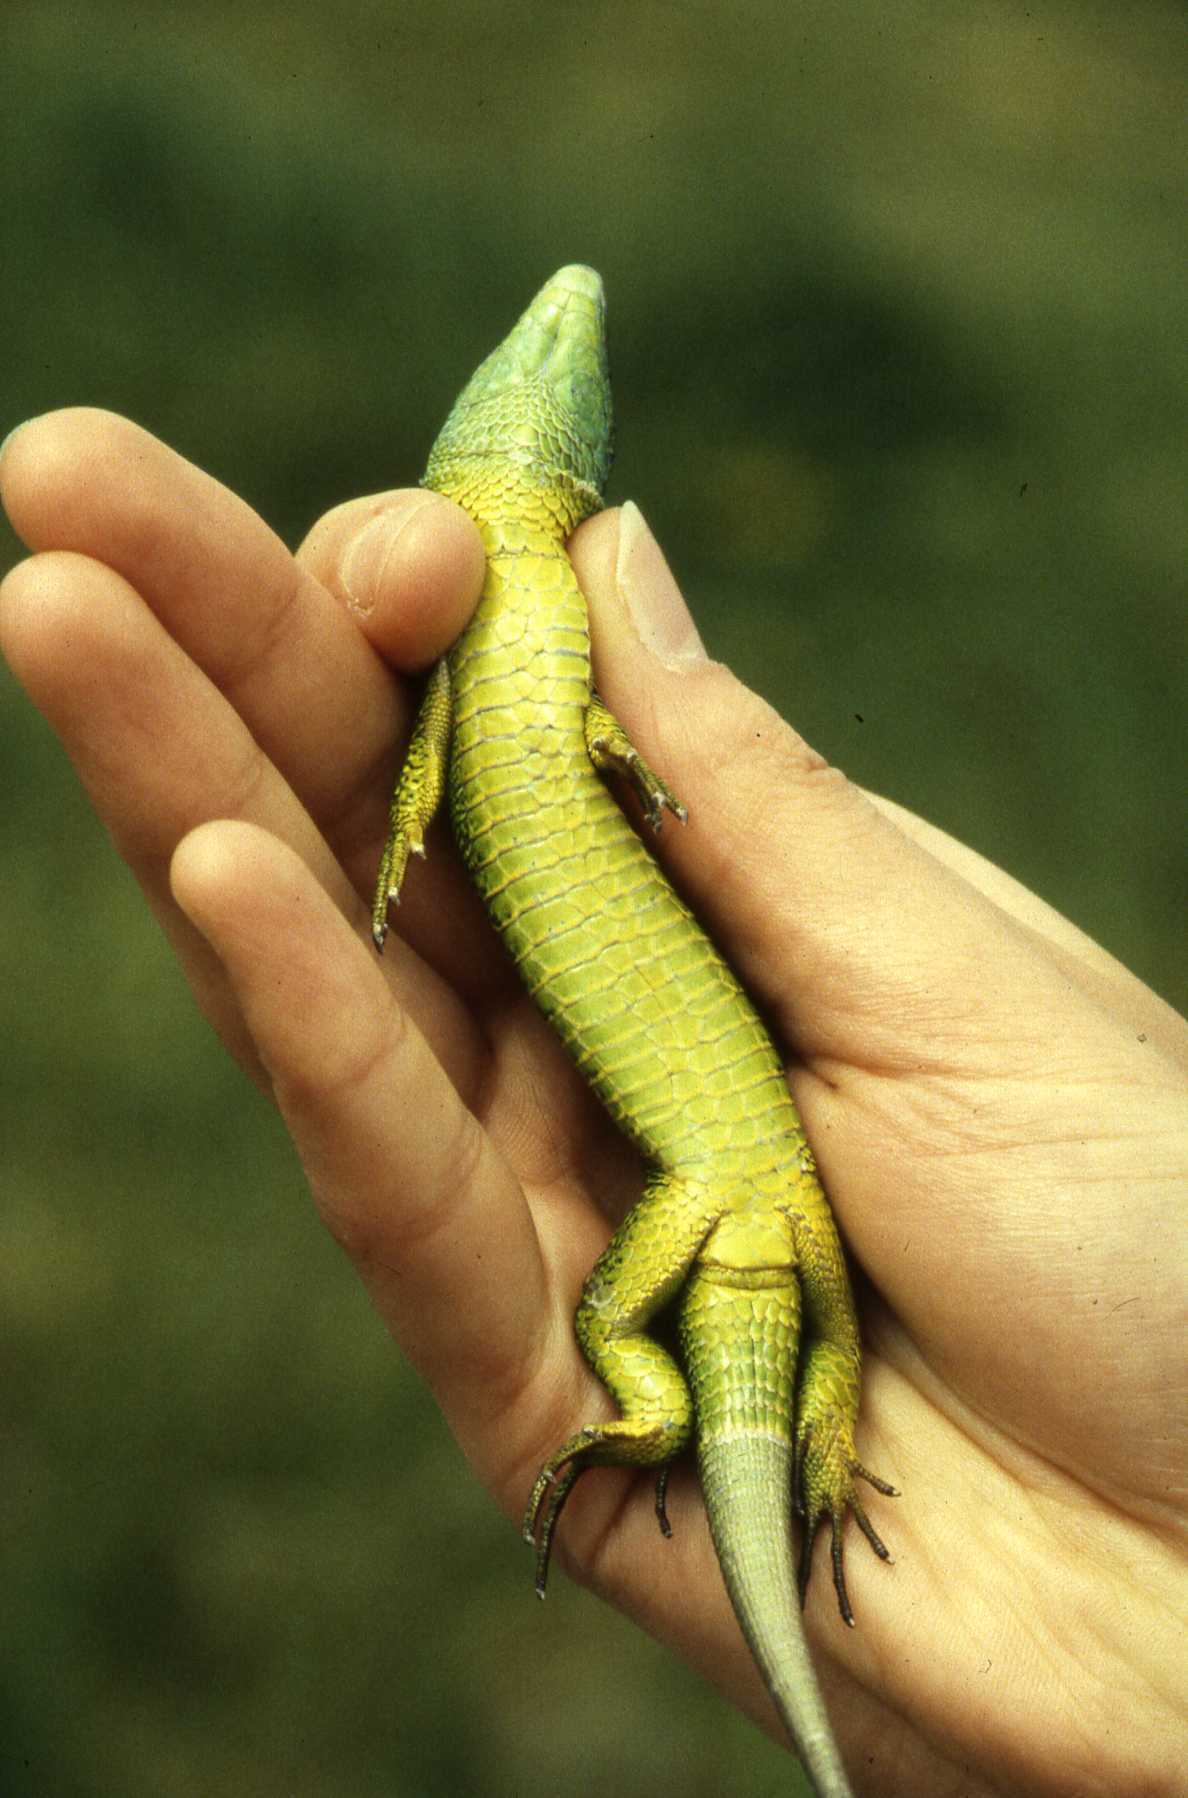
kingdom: Animalia
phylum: Chordata
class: Squamata
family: Lacertidae
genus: Lacerta
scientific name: Lacerta bilineata
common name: Western green lizard
